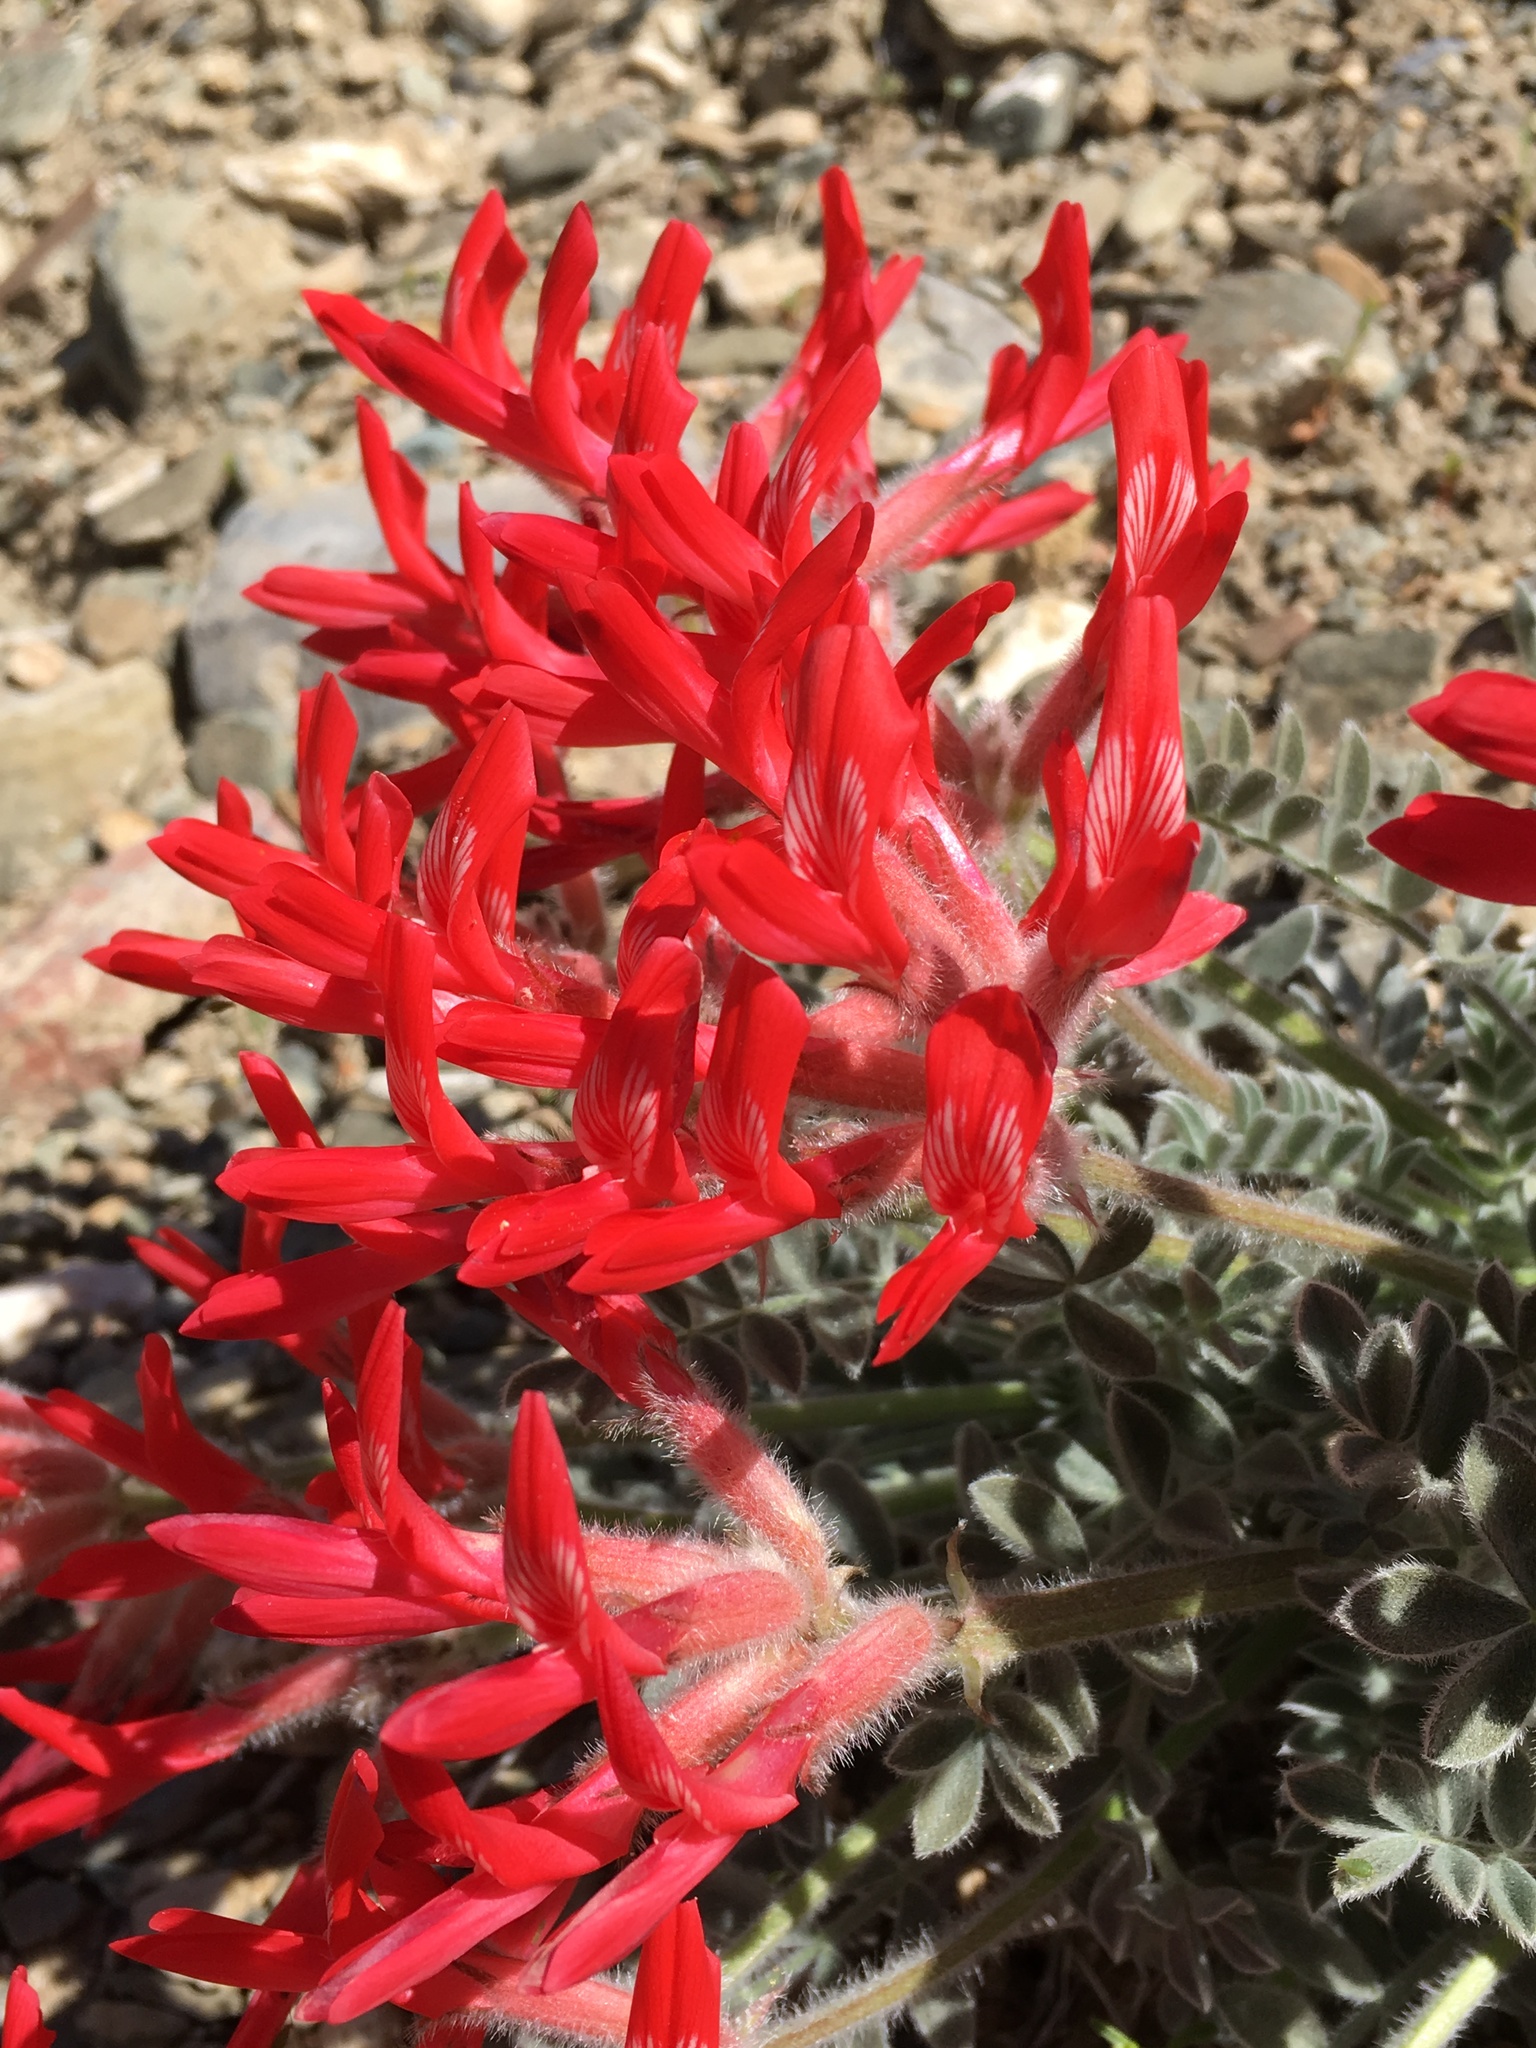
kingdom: Plantae
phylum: Tracheophyta
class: Magnoliopsida
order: Fabales
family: Fabaceae
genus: Astragalus
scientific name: Astragalus coccineus
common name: Scarlet milk-vetch
